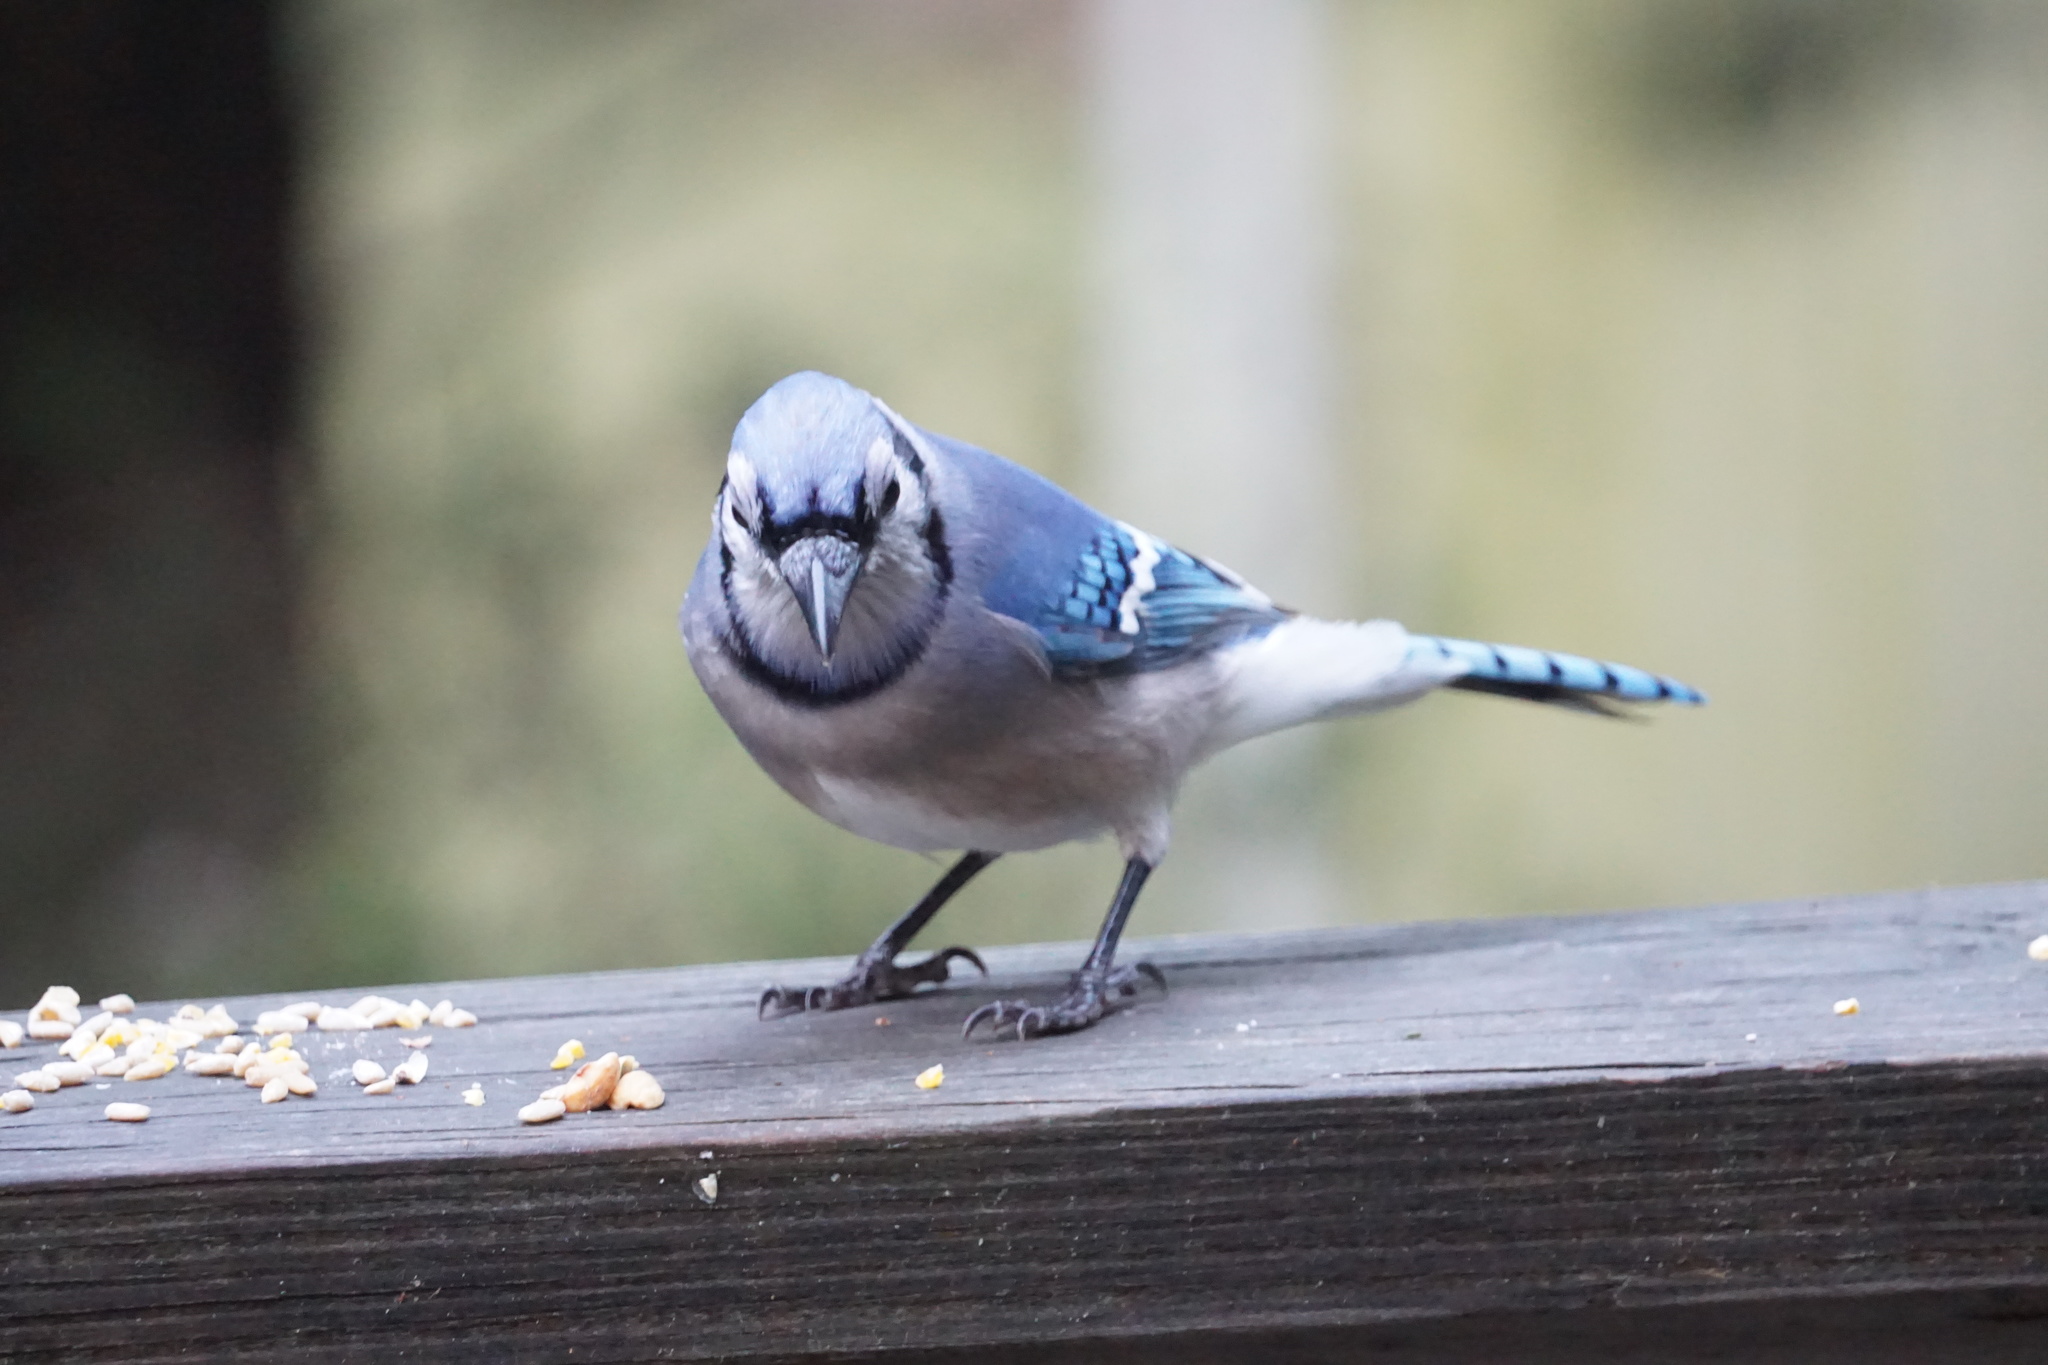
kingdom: Animalia
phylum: Chordata
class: Aves
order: Passeriformes
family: Corvidae
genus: Cyanocitta
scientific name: Cyanocitta cristata
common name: Blue jay
